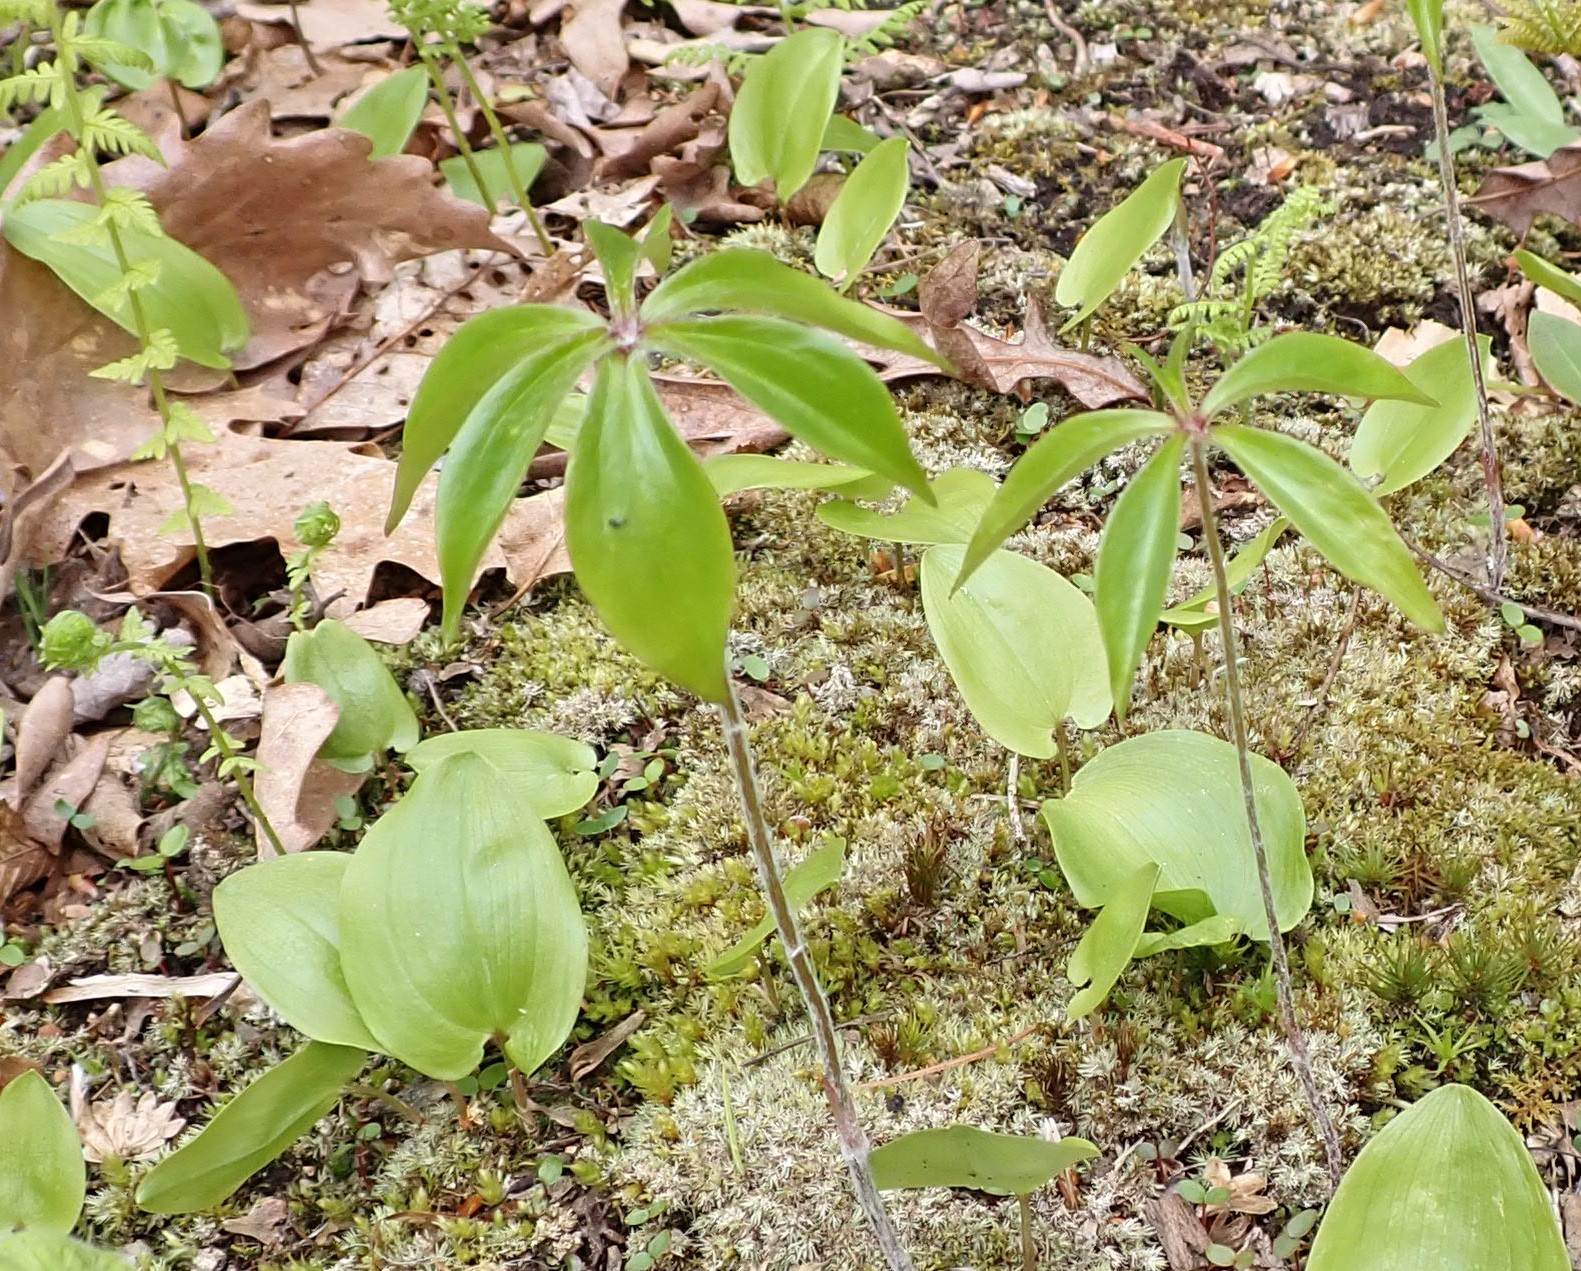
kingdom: Plantae
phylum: Tracheophyta
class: Liliopsida
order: Liliales
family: Liliaceae
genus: Medeola
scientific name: Medeola virginiana
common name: Indian cucumber-root
